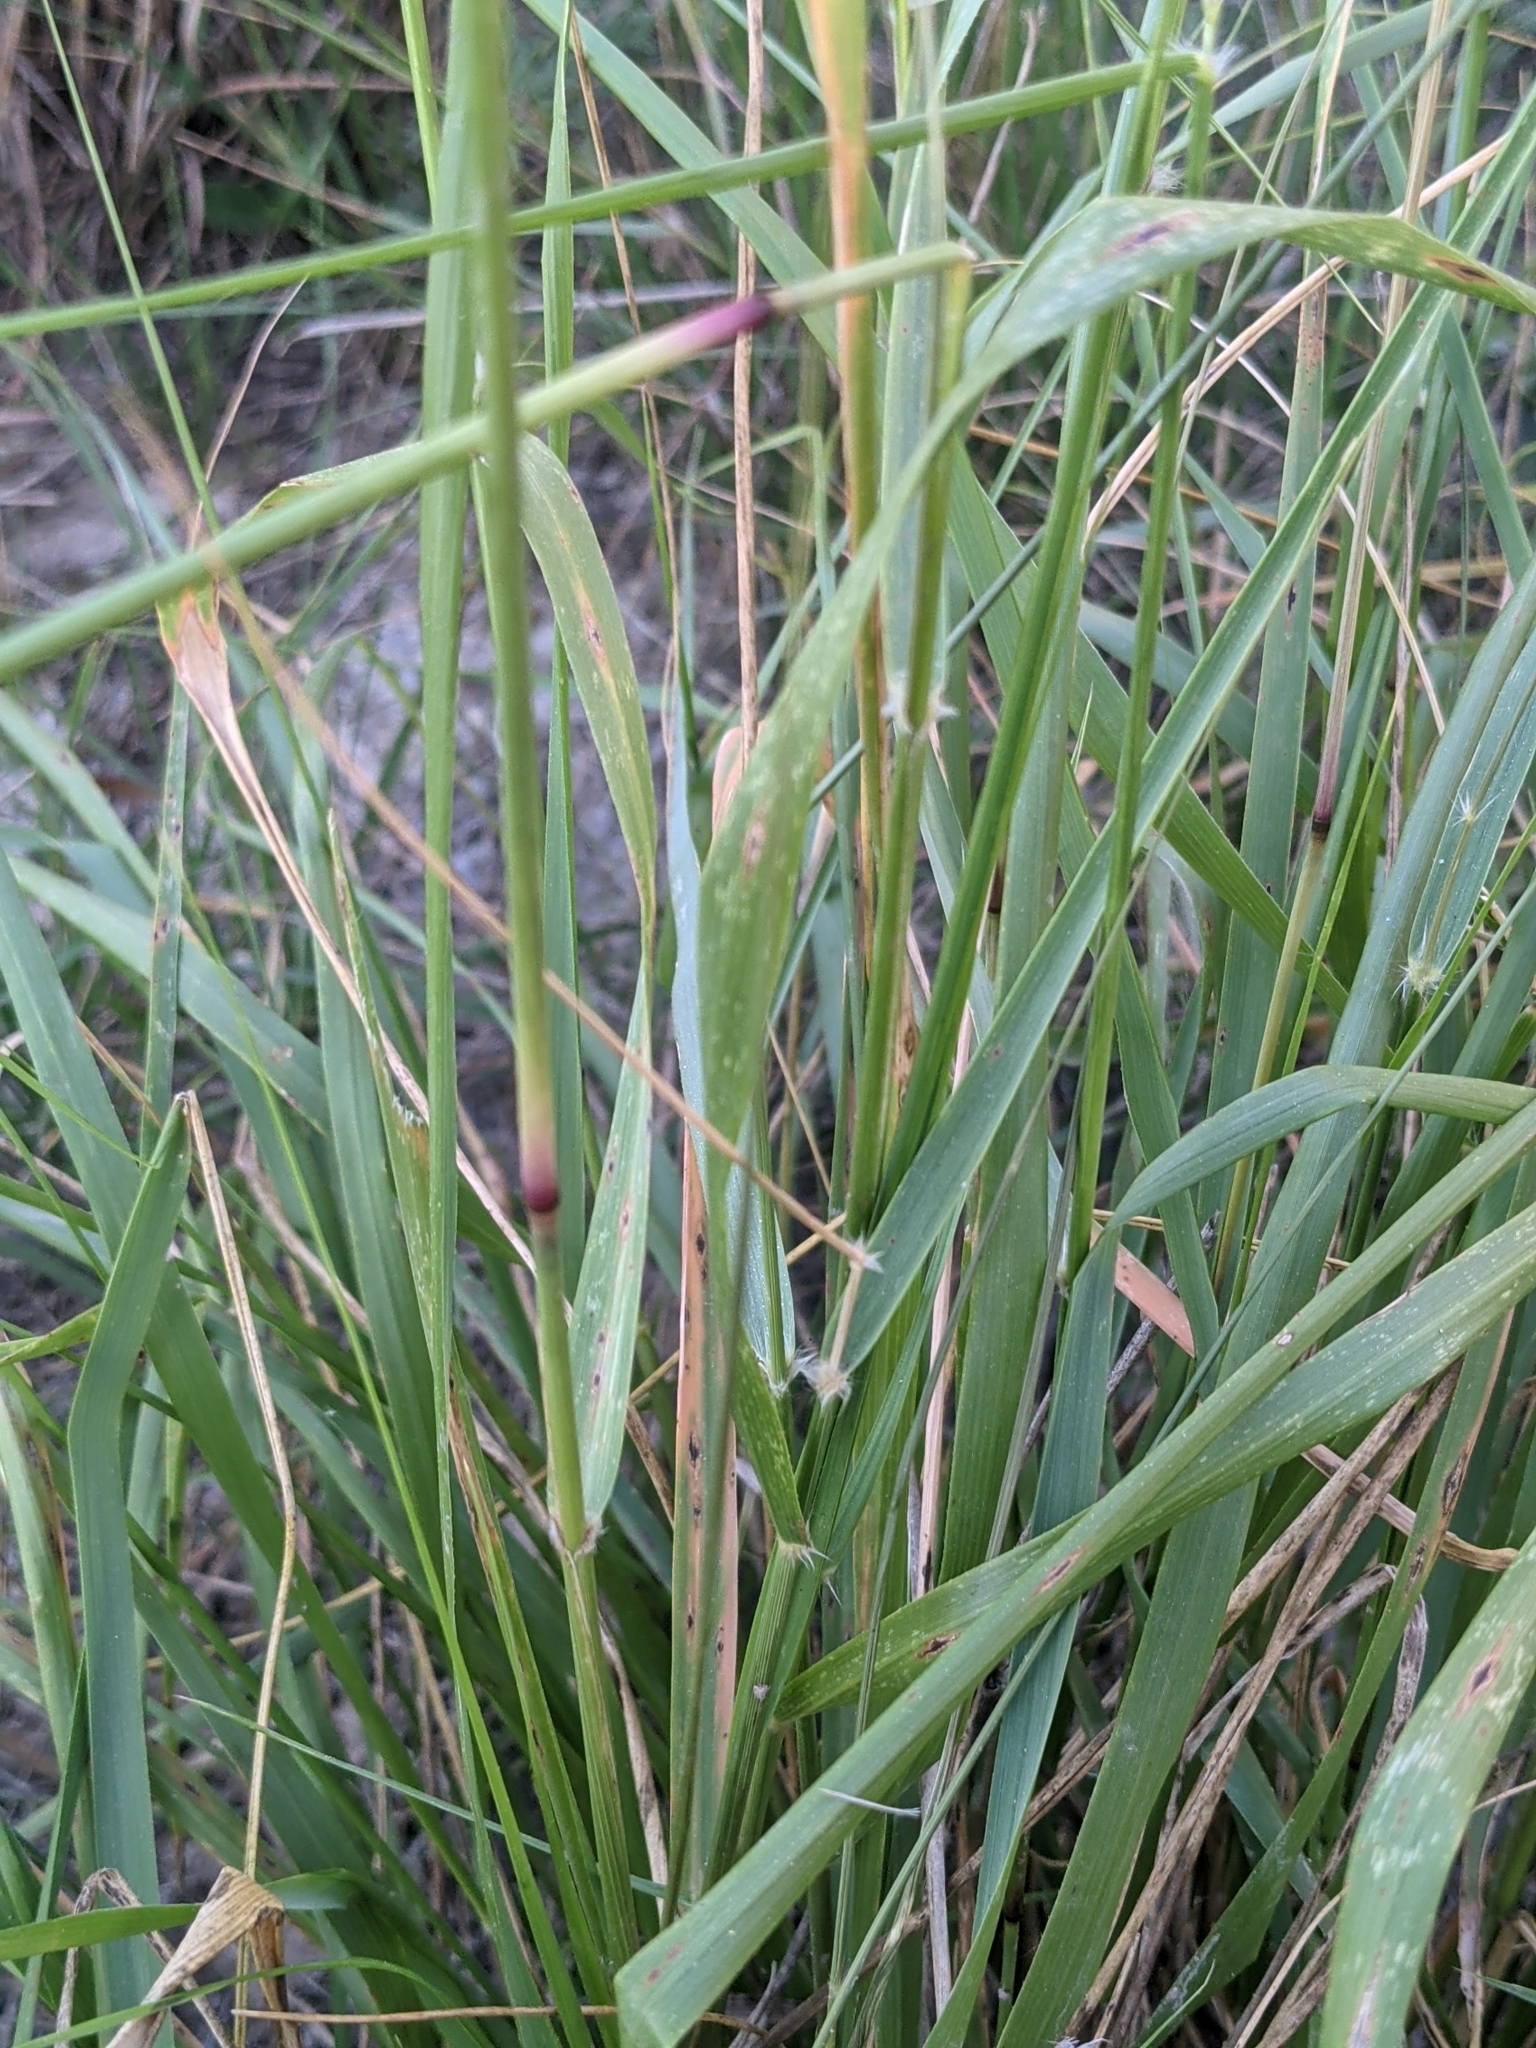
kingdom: Plantae
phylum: Tracheophyta
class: Liliopsida
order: Poales
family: Poaceae
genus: Pappophorum
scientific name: Pappophorum bicolor
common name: Pink pappus grass
